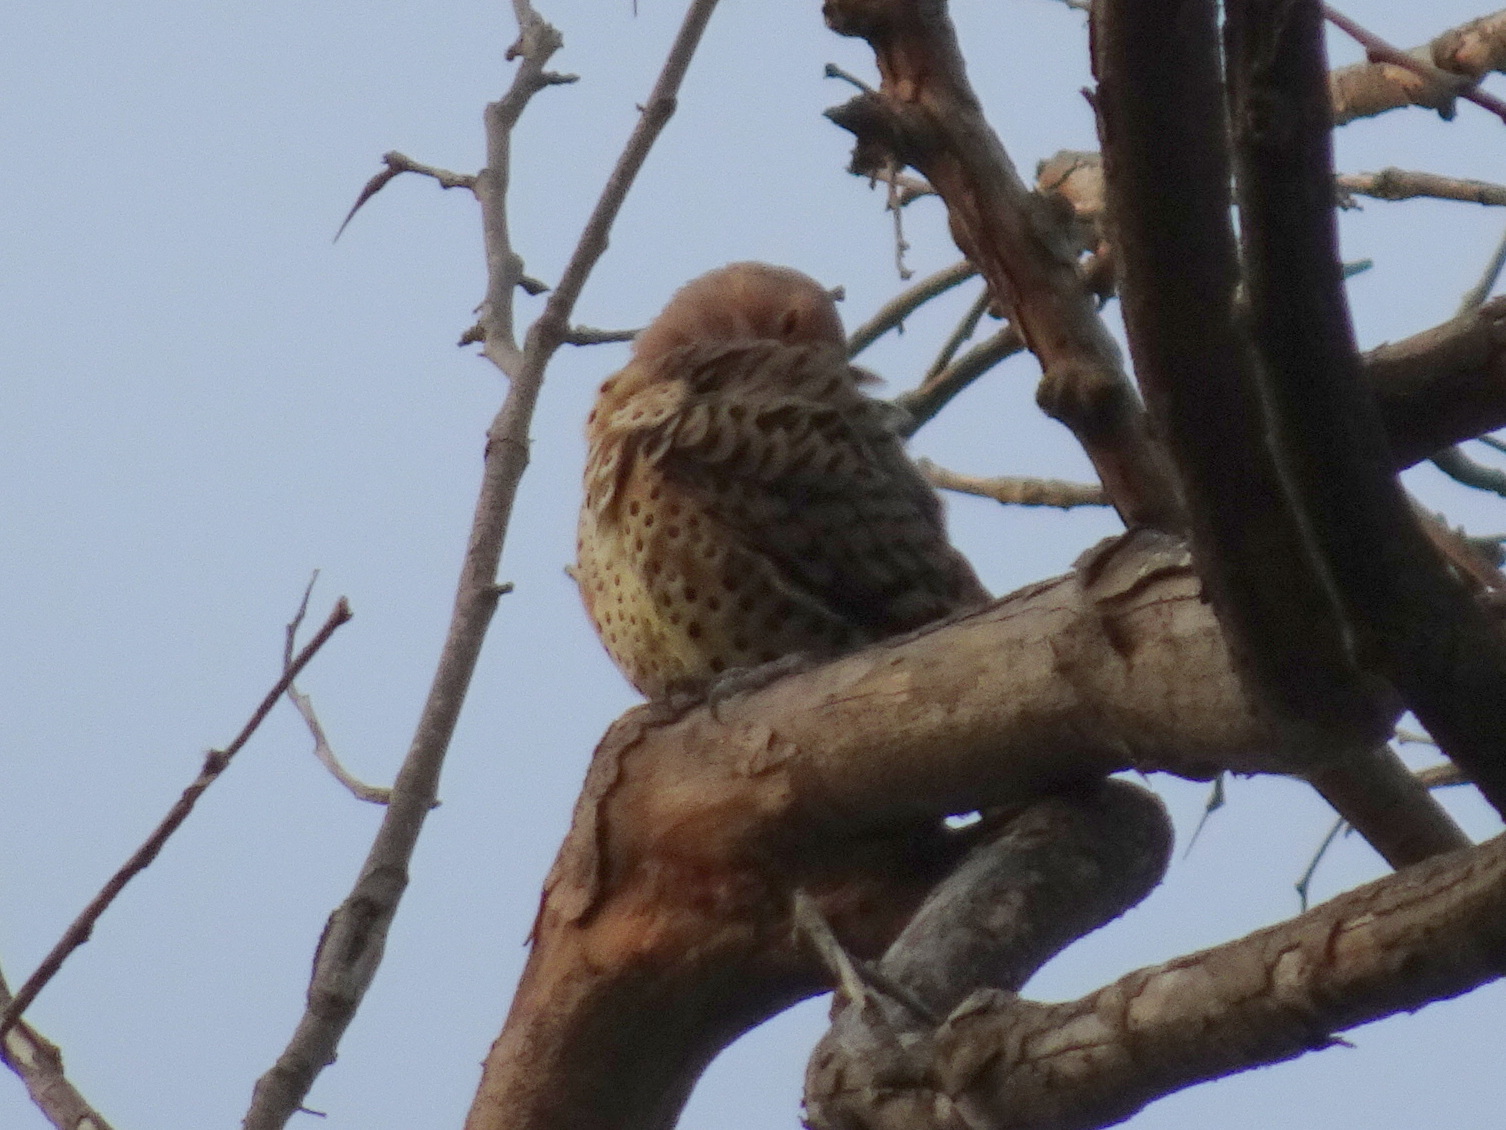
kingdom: Animalia
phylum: Chordata
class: Aves
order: Piciformes
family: Picidae
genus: Colaptes
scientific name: Colaptes auratus
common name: Northern flicker
